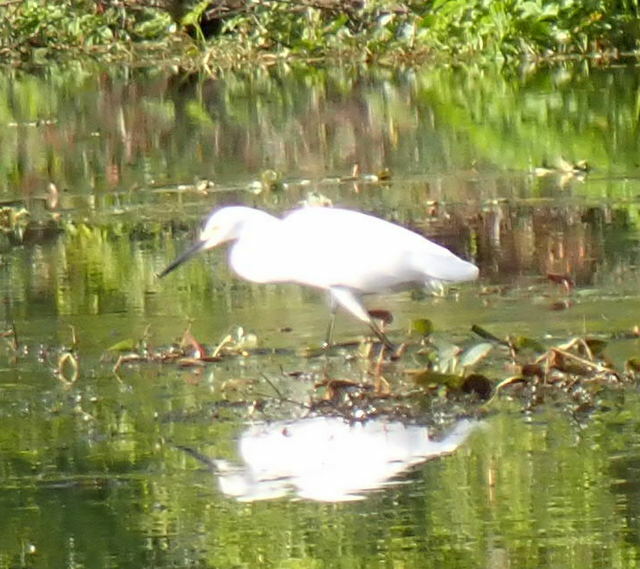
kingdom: Animalia
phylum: Chordata
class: Aves
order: Pelecaniformes
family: Ardeidae
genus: Egretta
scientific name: Egretta thula
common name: Snowy egret
